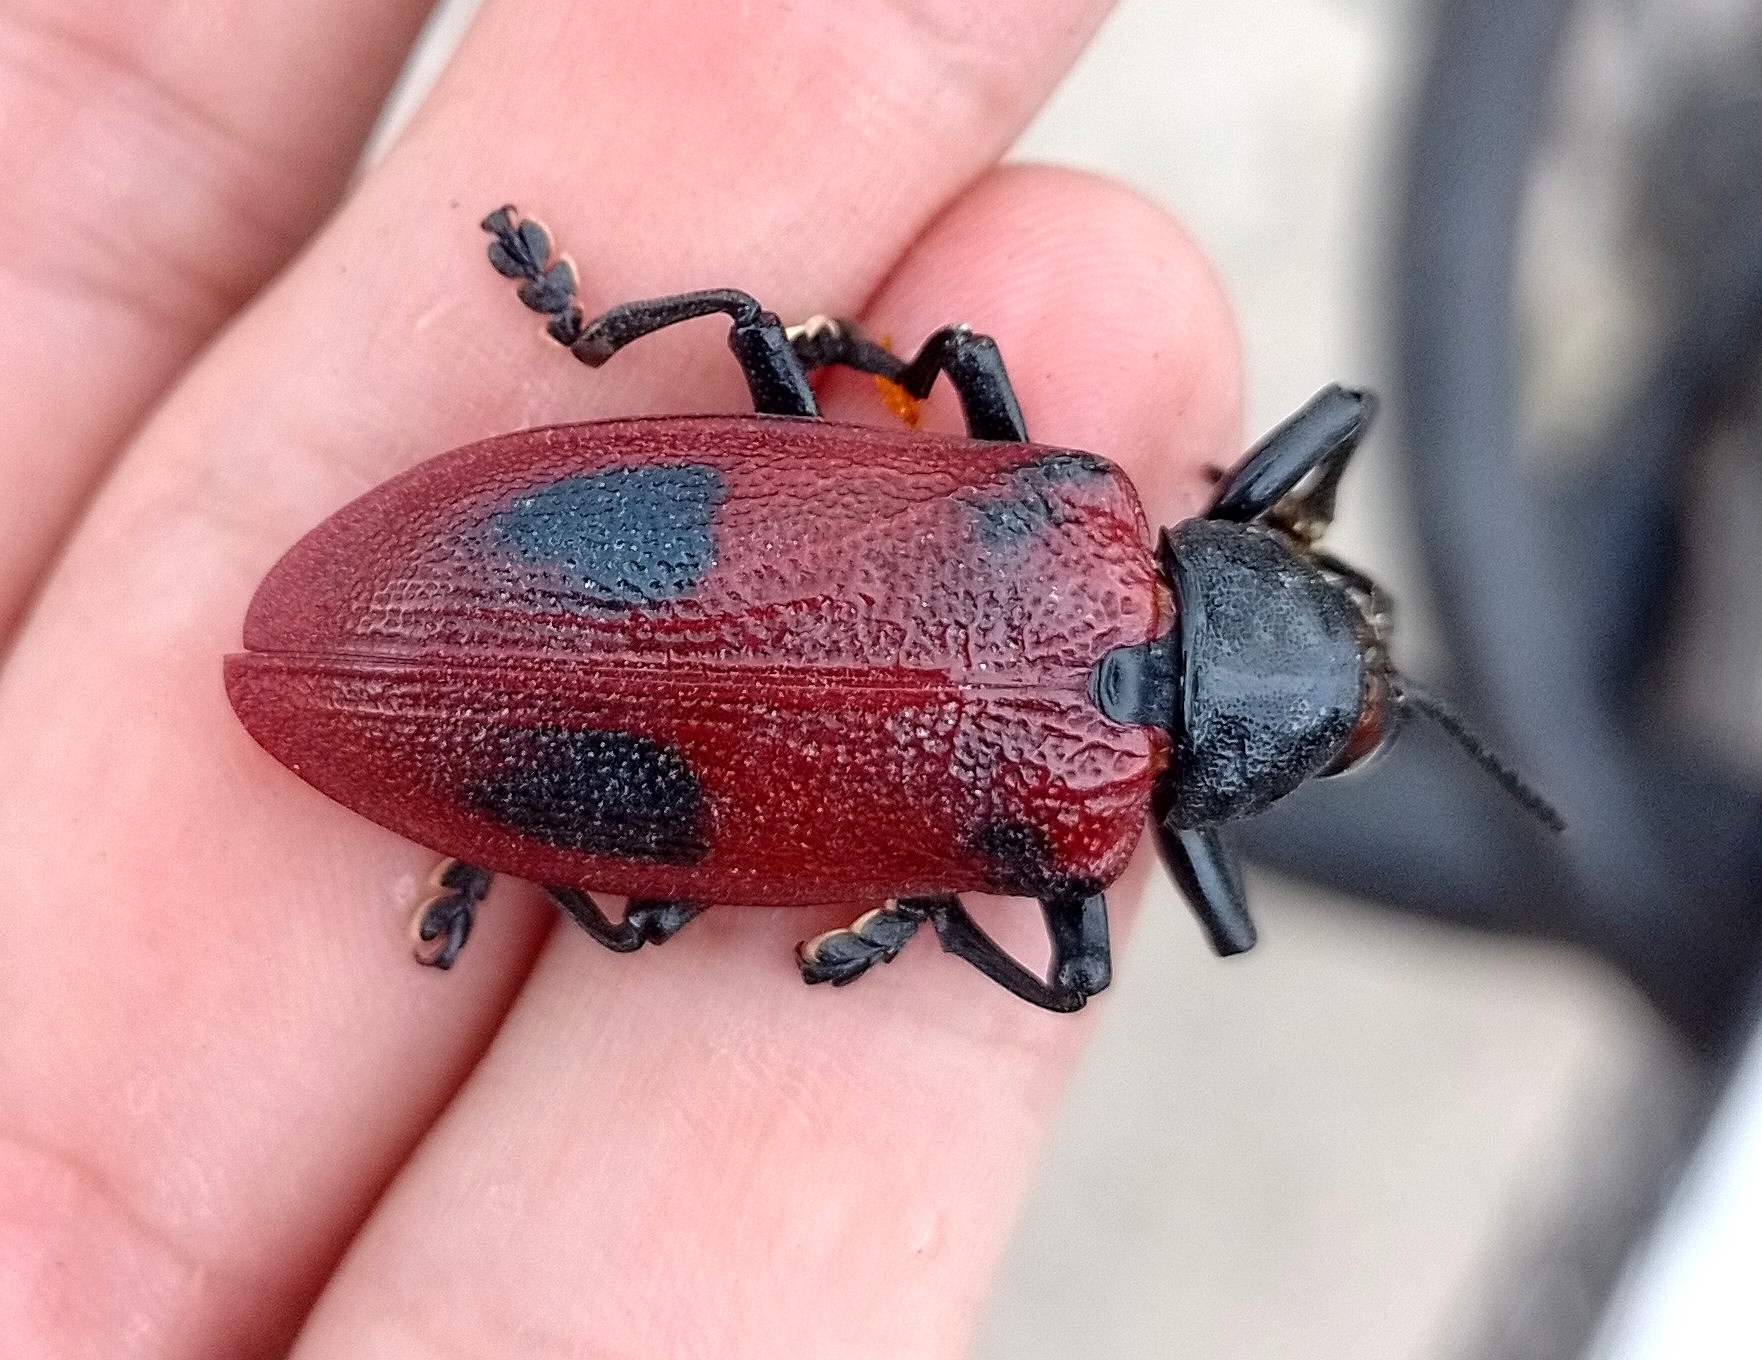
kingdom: Animalia
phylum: Arthropoda
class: Insecta
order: Coleoptera
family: Chrysomelidae
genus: Coraliomela
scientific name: Coraliomela quadrimaculata
